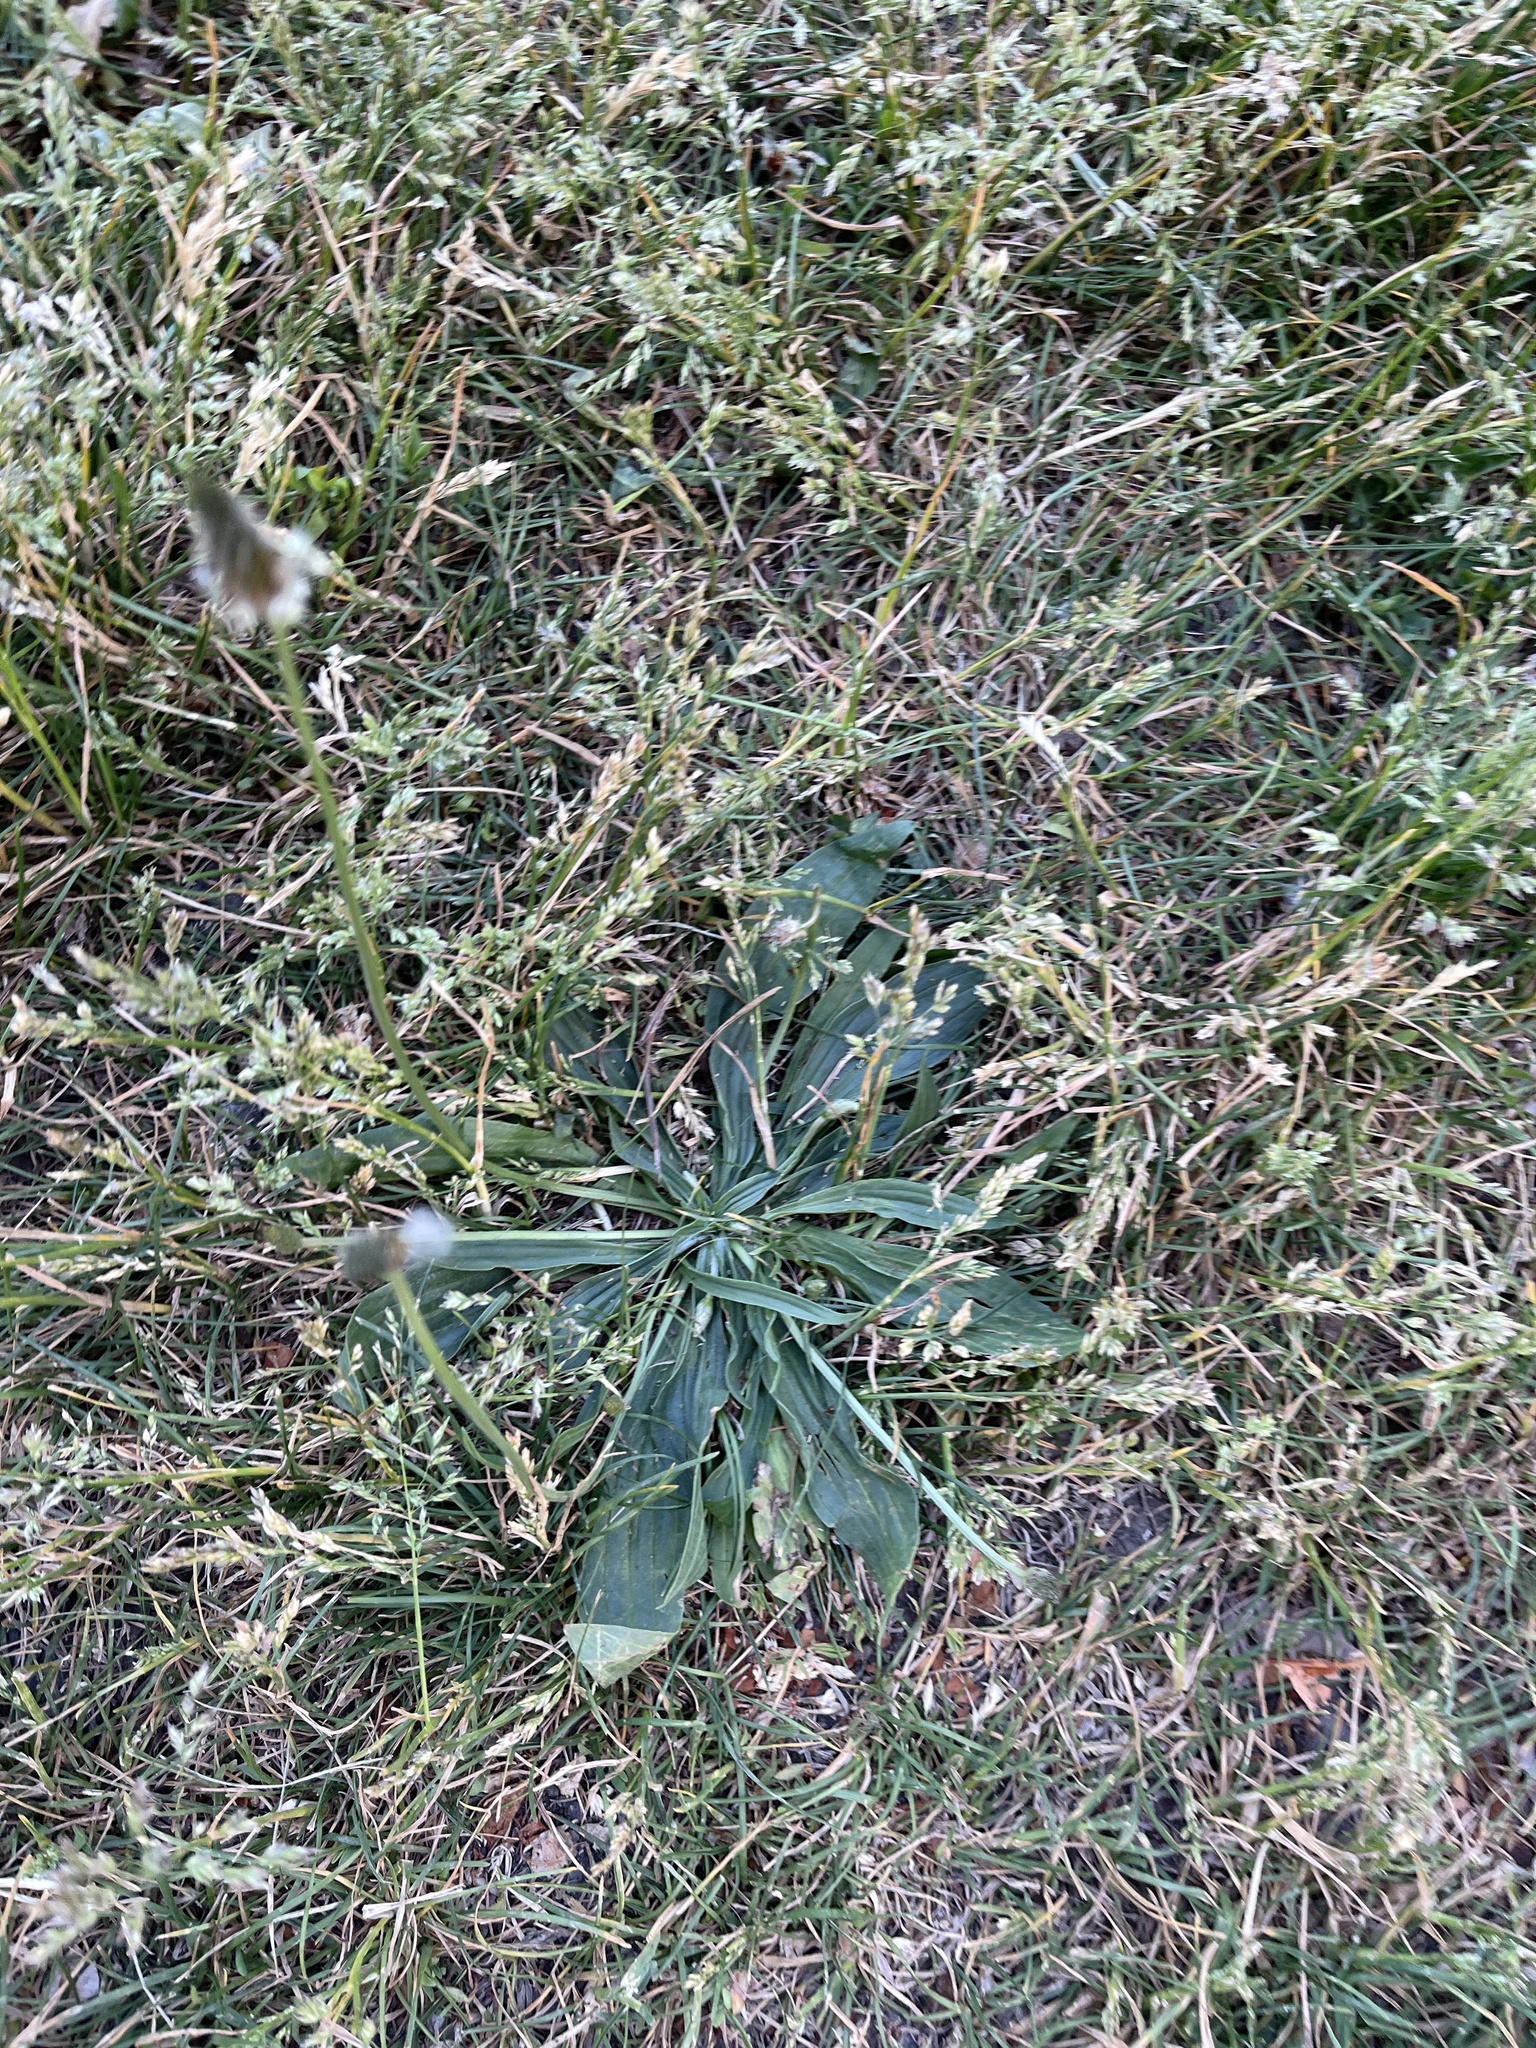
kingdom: Plantae
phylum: Tracheophyta
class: Magnoliopsida
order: Lamiales
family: Plantaginaceae
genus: Plantago
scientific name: Plantago lanceolata
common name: Ribwort plantain
